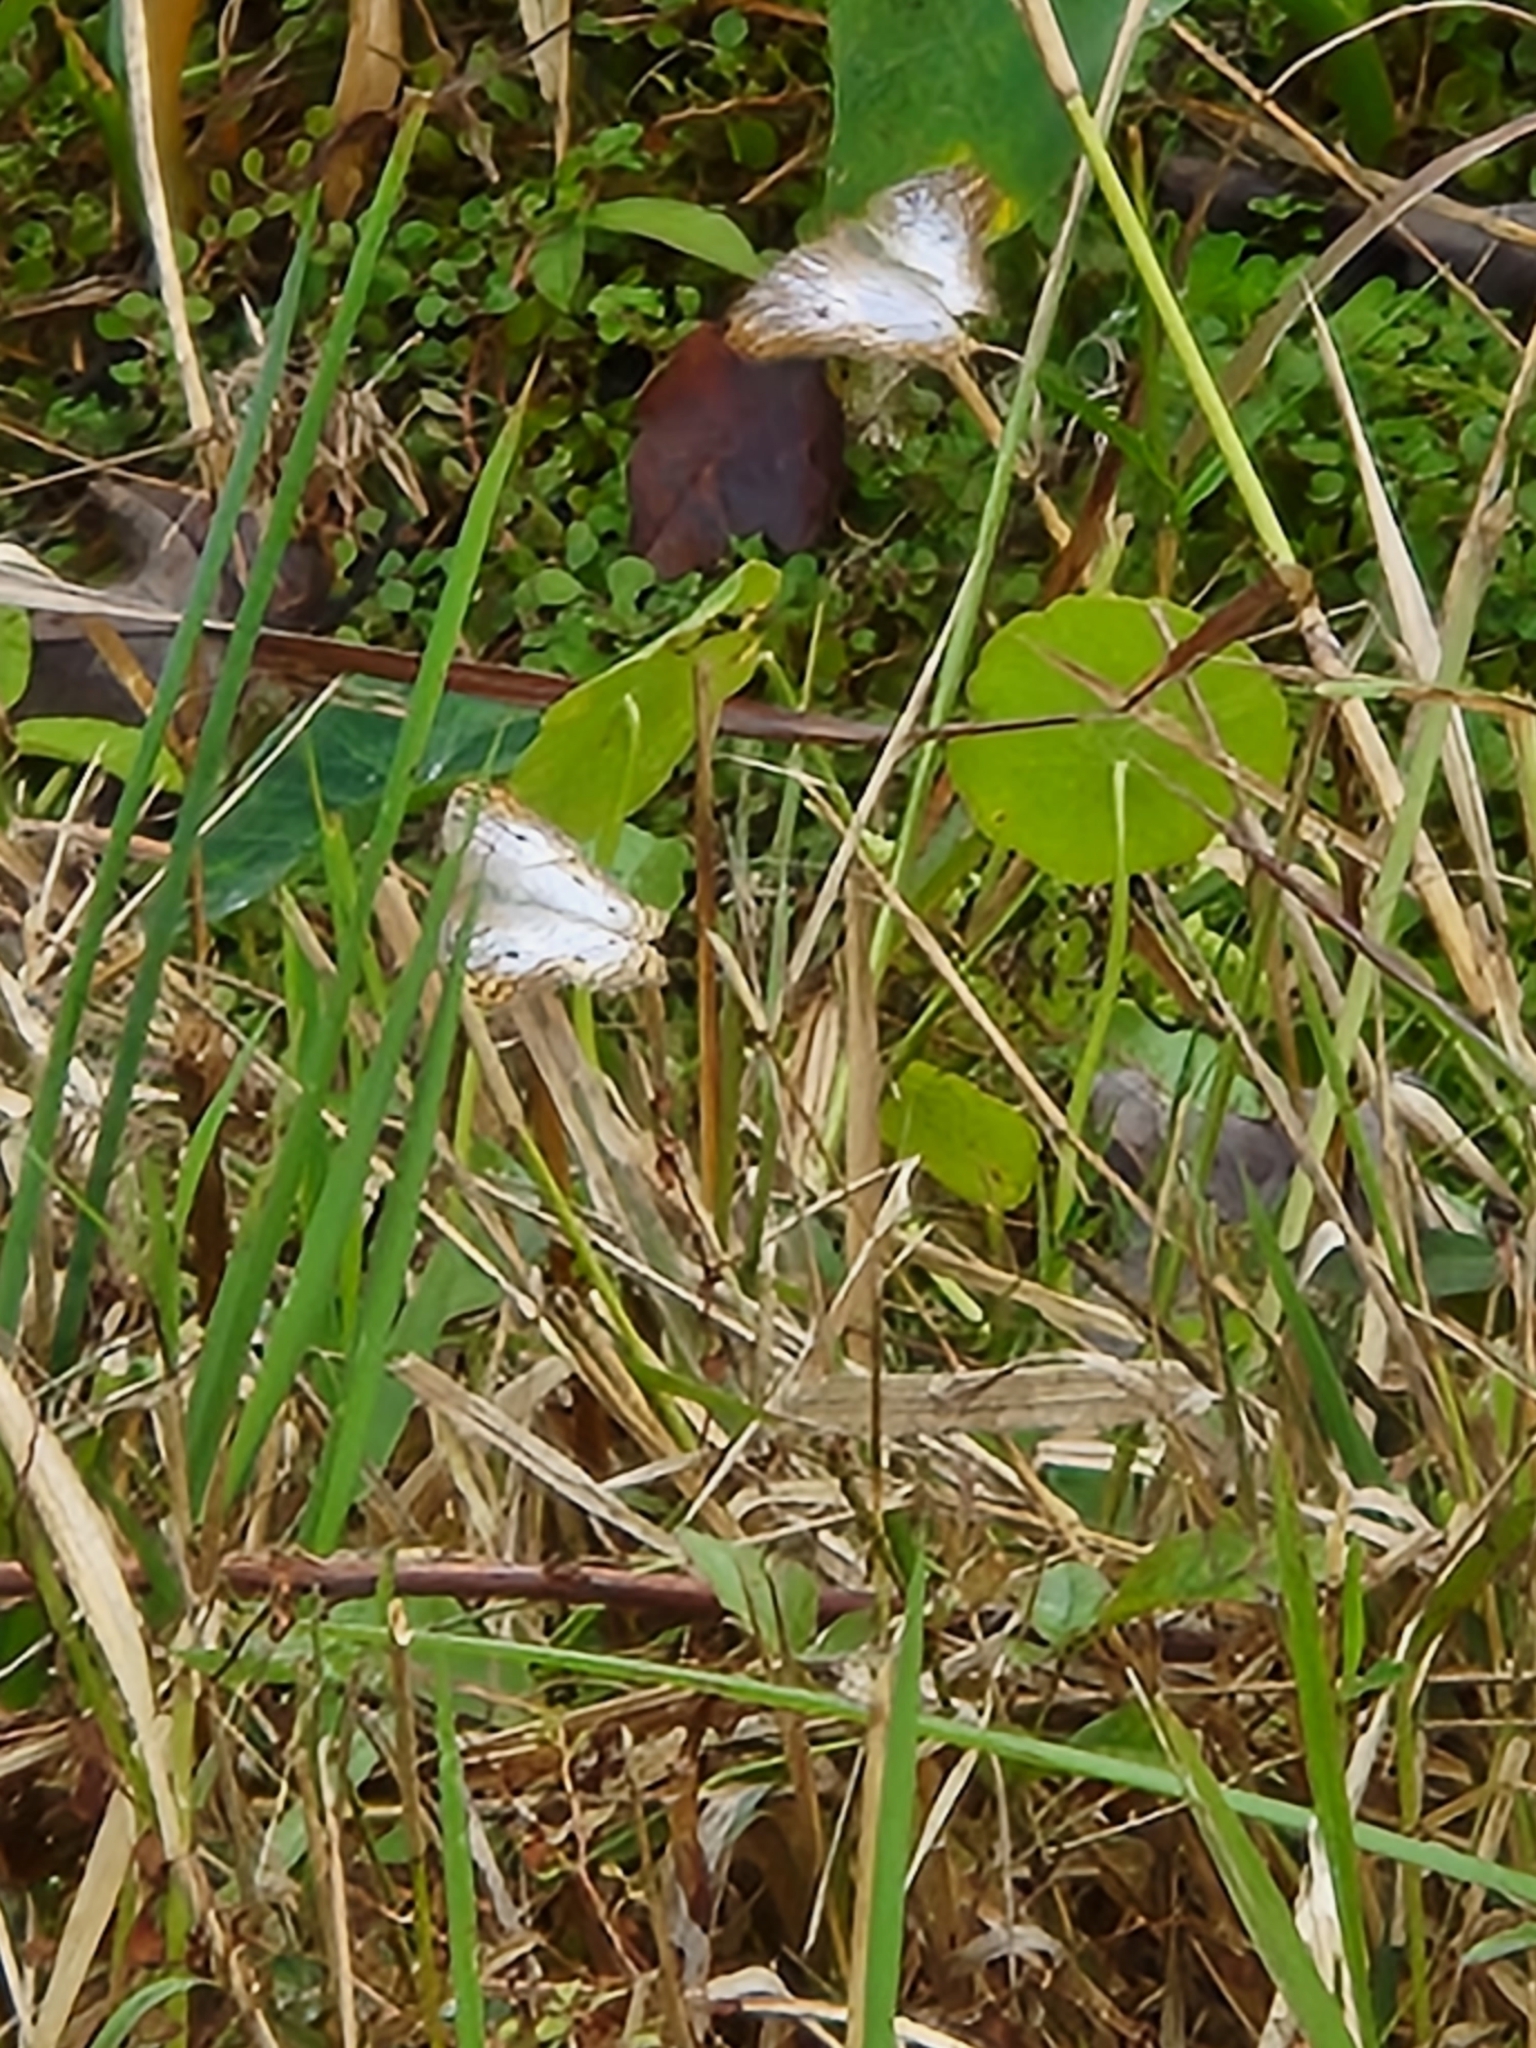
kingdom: Animalia
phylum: Arthropoda
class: Insecta
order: Lepidoptera
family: Nymphalidae
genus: Anartia
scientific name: Anartia jatrophae
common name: White peacock
